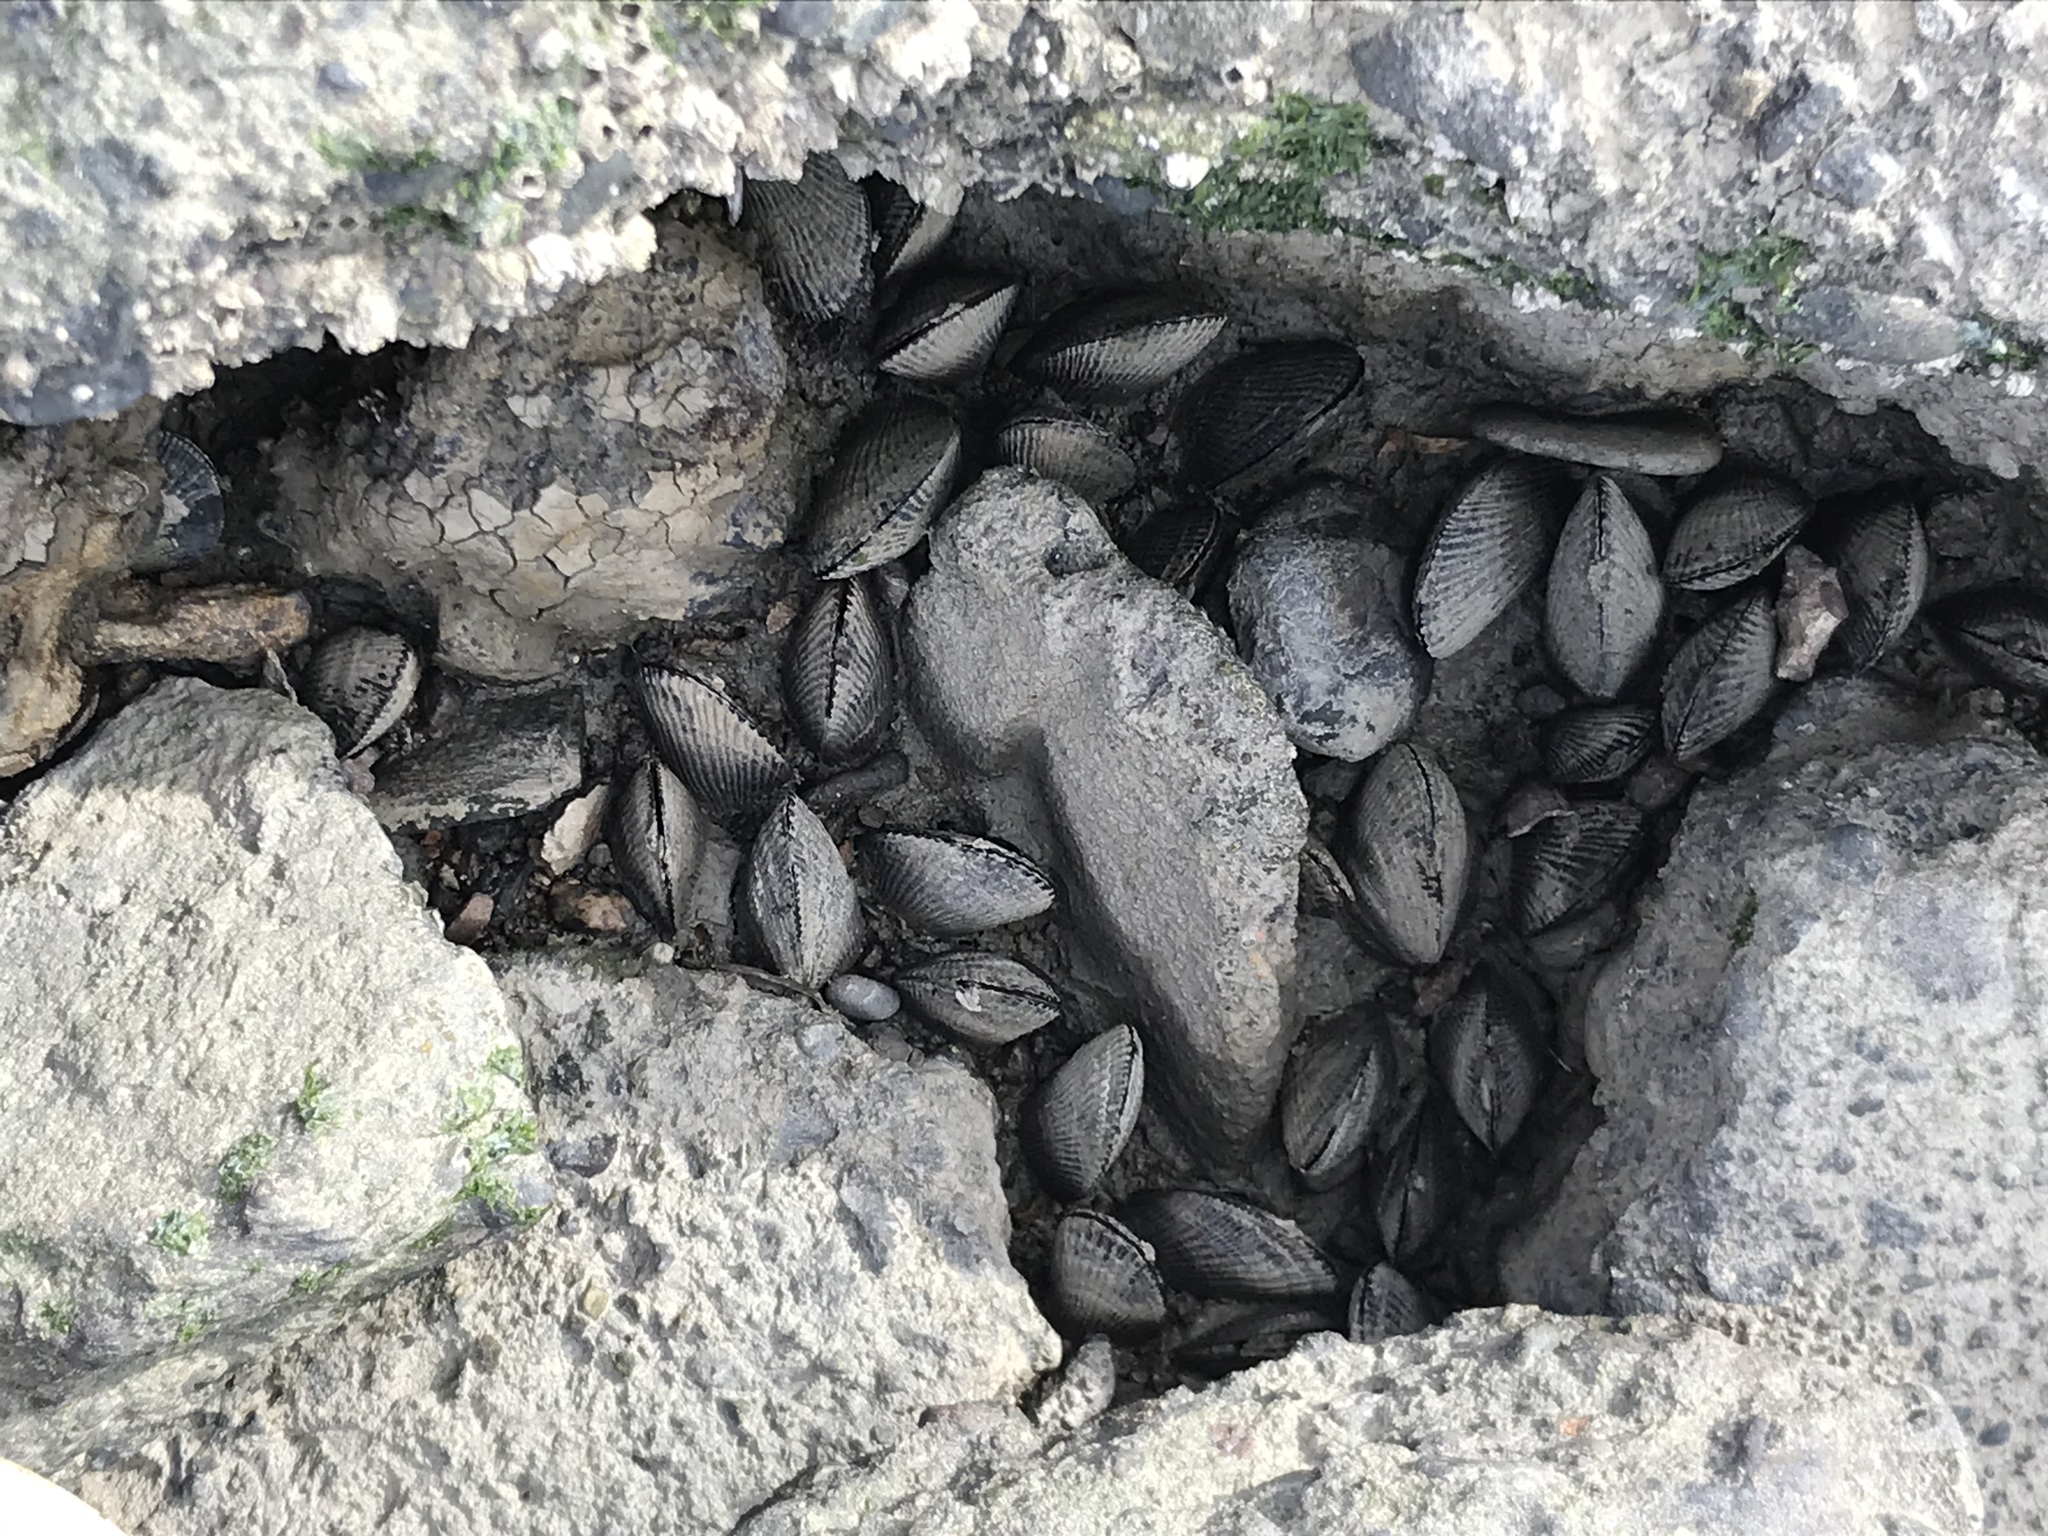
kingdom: Animalia
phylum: Mollusca
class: Bivalvia
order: Mytilida
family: Mytilidae
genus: Geukensia
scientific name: Geukensia demissa
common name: Ribbed mussel
